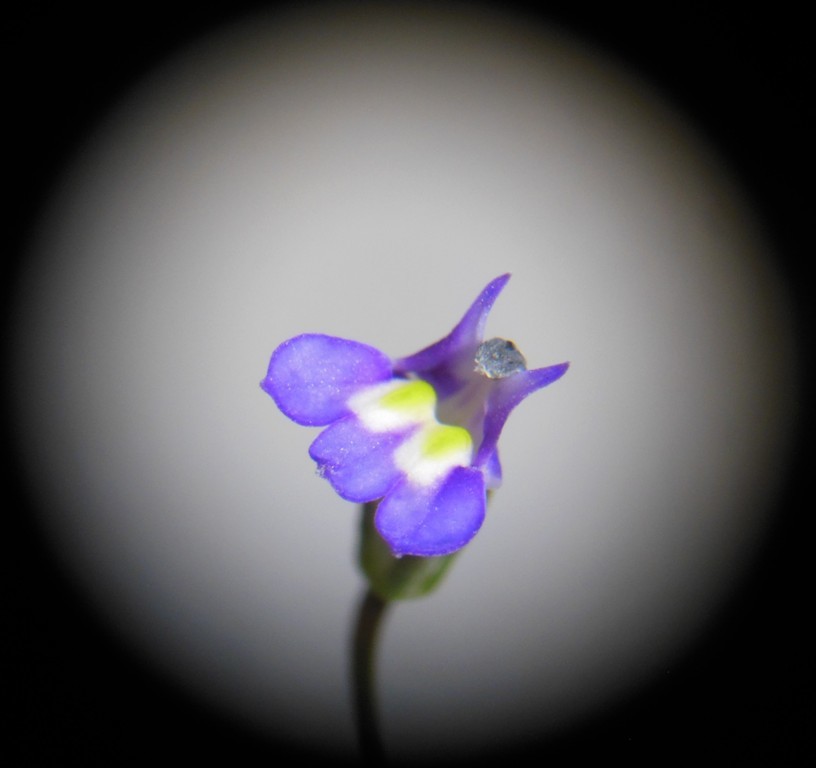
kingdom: Plantae
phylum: Tracheophyta
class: Magnoliopsida
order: Asterales
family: Campanulaceae
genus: Lobelia
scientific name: Lobelia longicaulis
